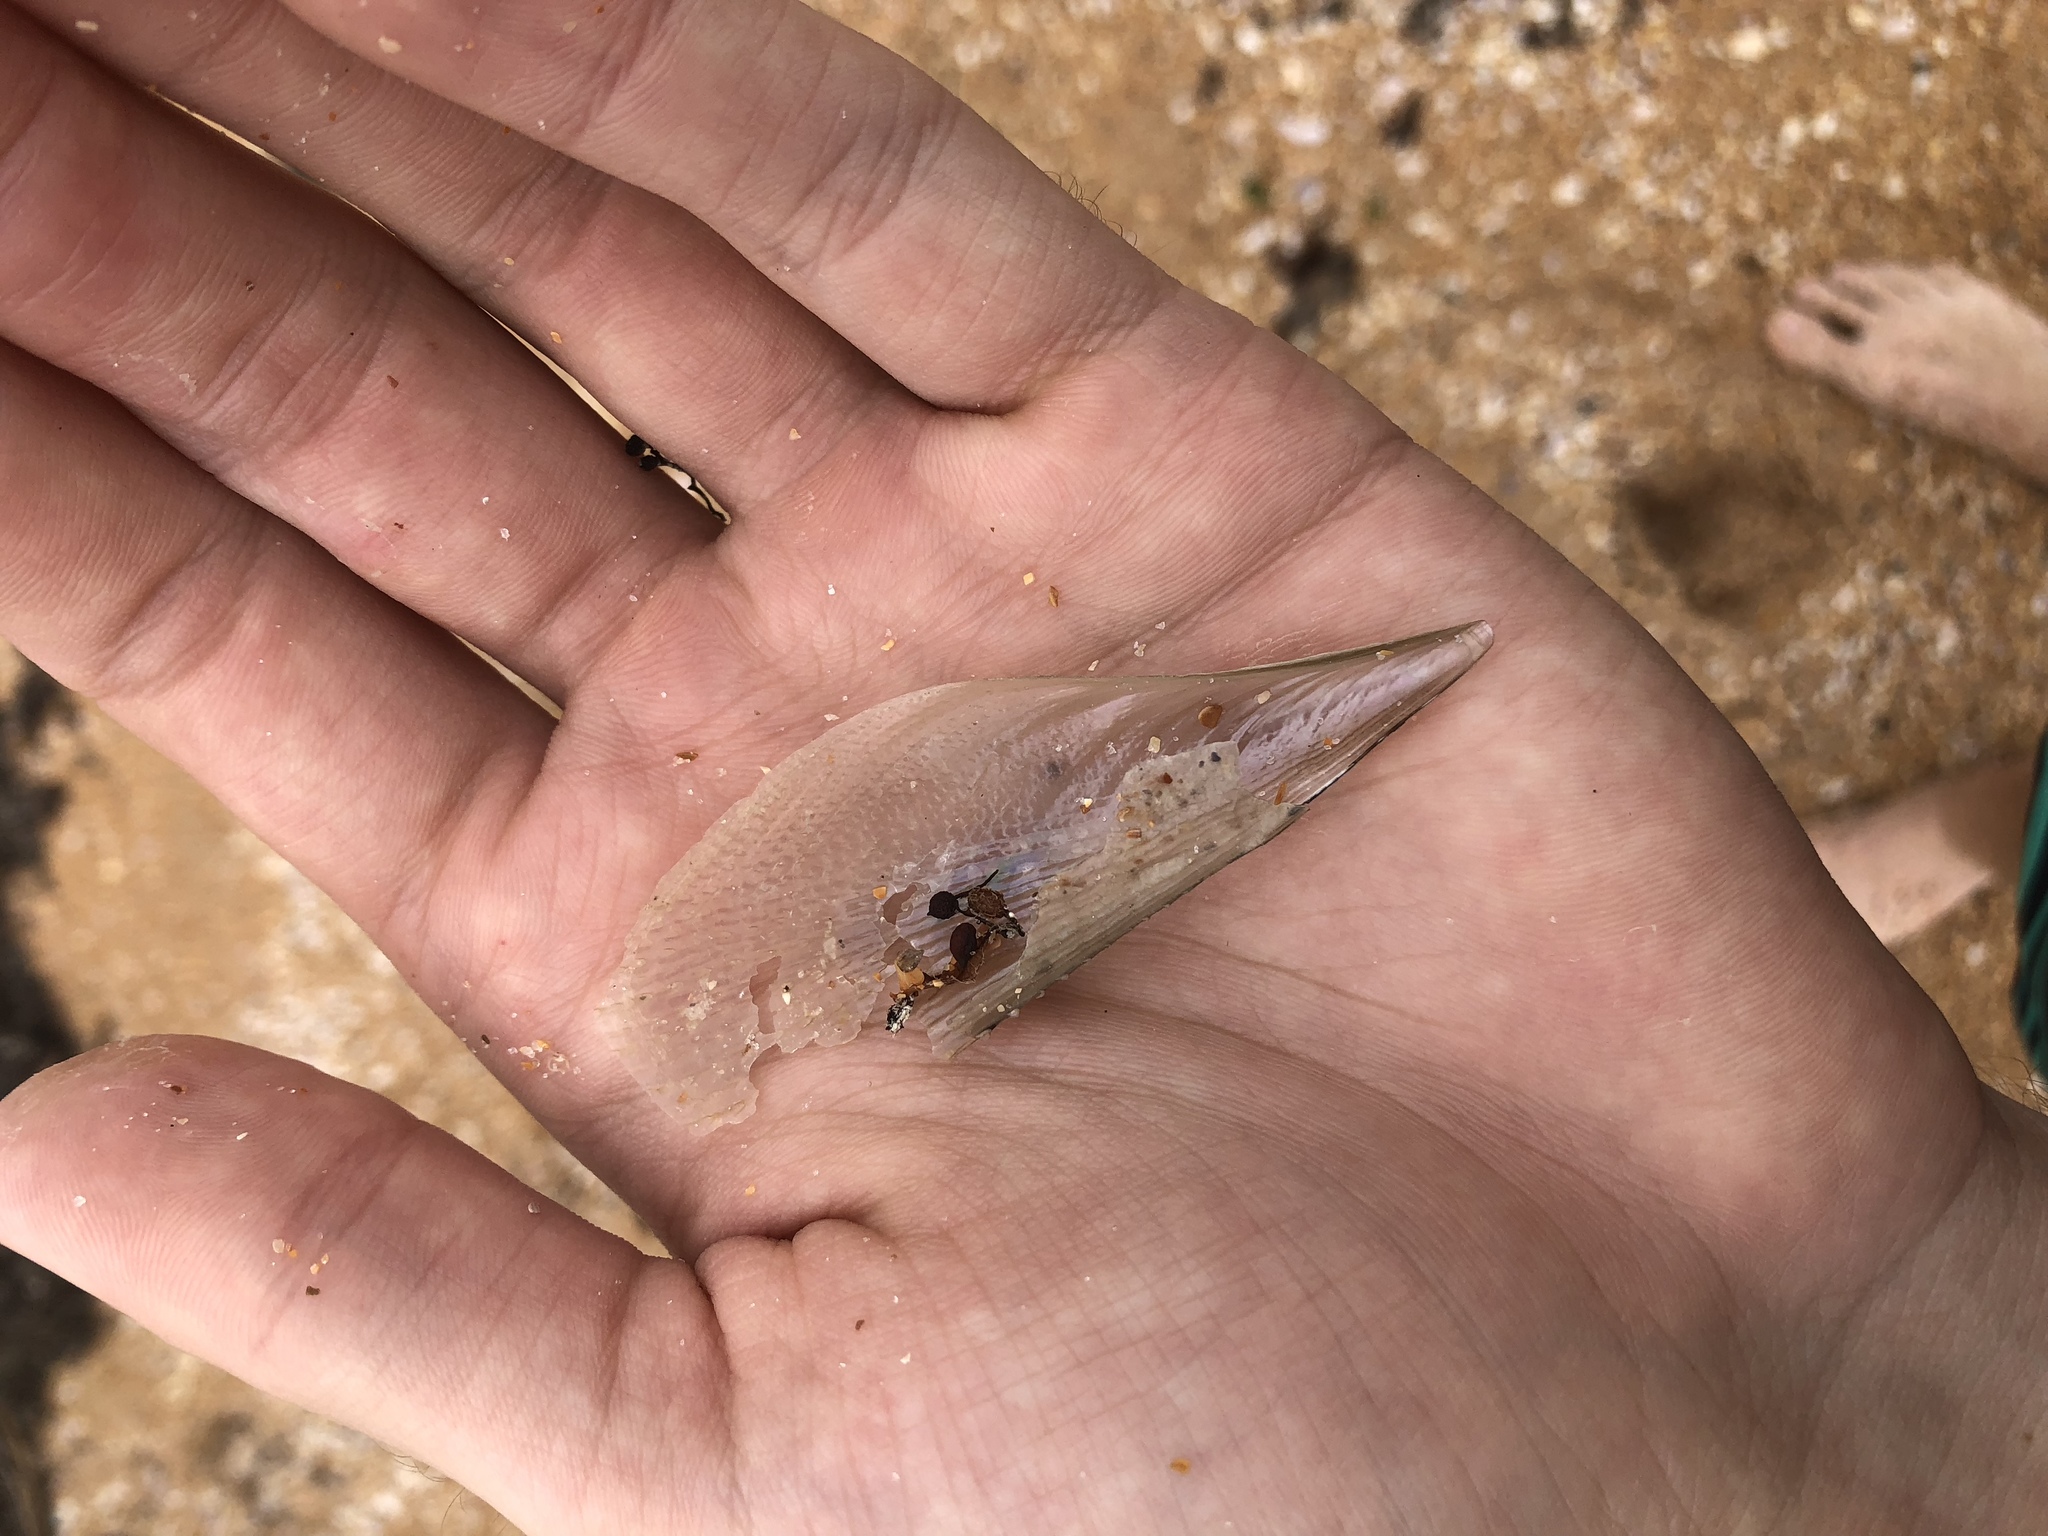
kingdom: Animalia
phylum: Mollusca
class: Bivalvia
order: Ostreida
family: Pinnidae
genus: Atrina
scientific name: Atrina serrata
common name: Saw-toothed penshell
